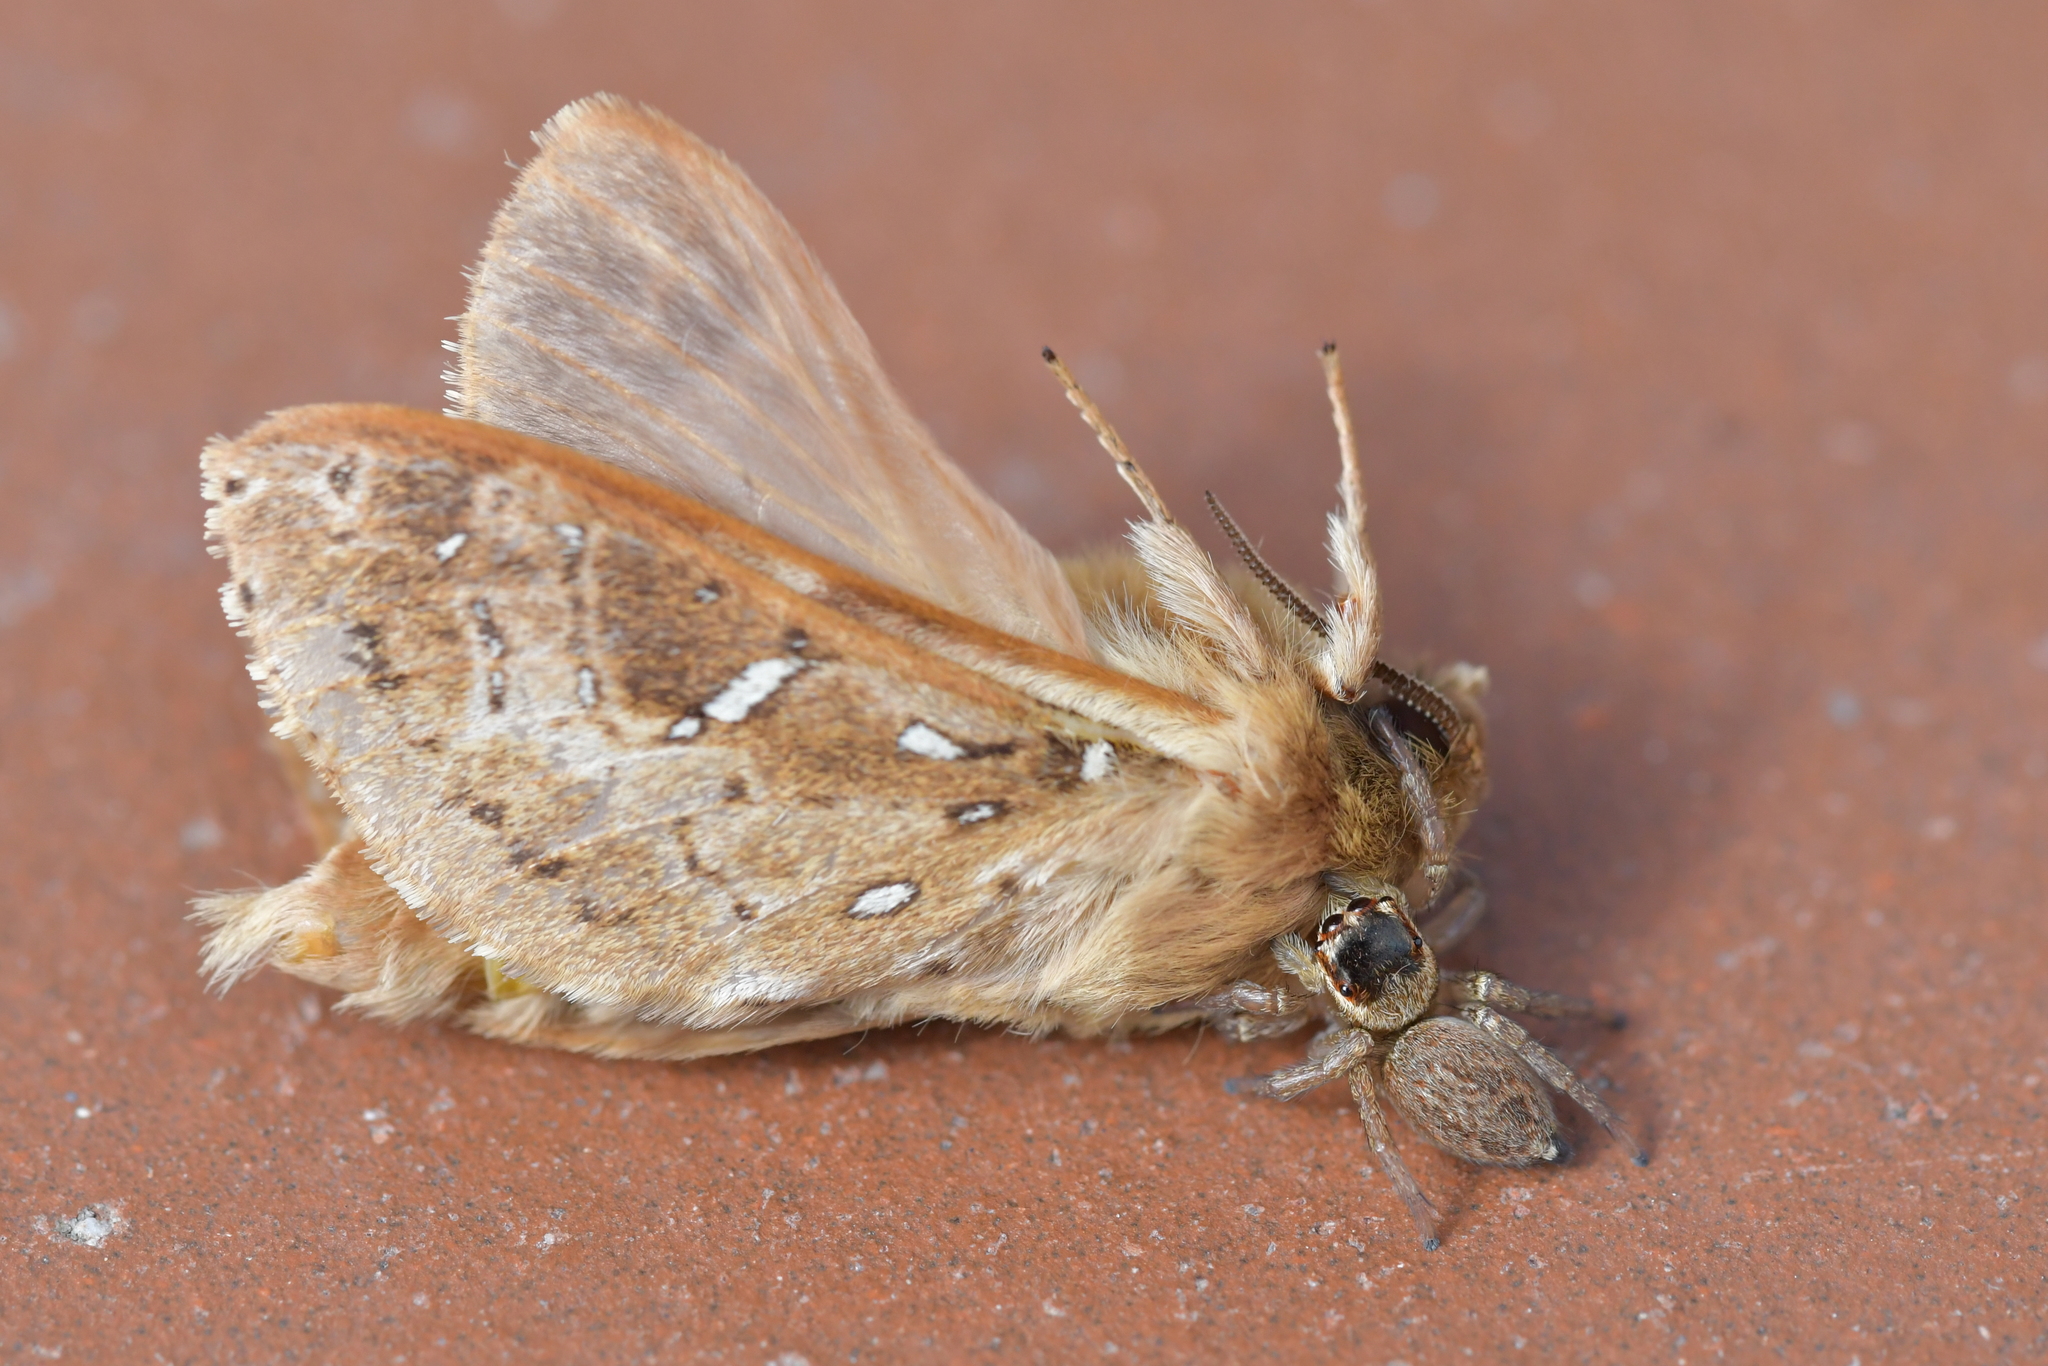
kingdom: Animalia
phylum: Arthropoda
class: Arachnida
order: Araneae
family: Salticidae
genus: Maratus
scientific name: Maratus griseus
